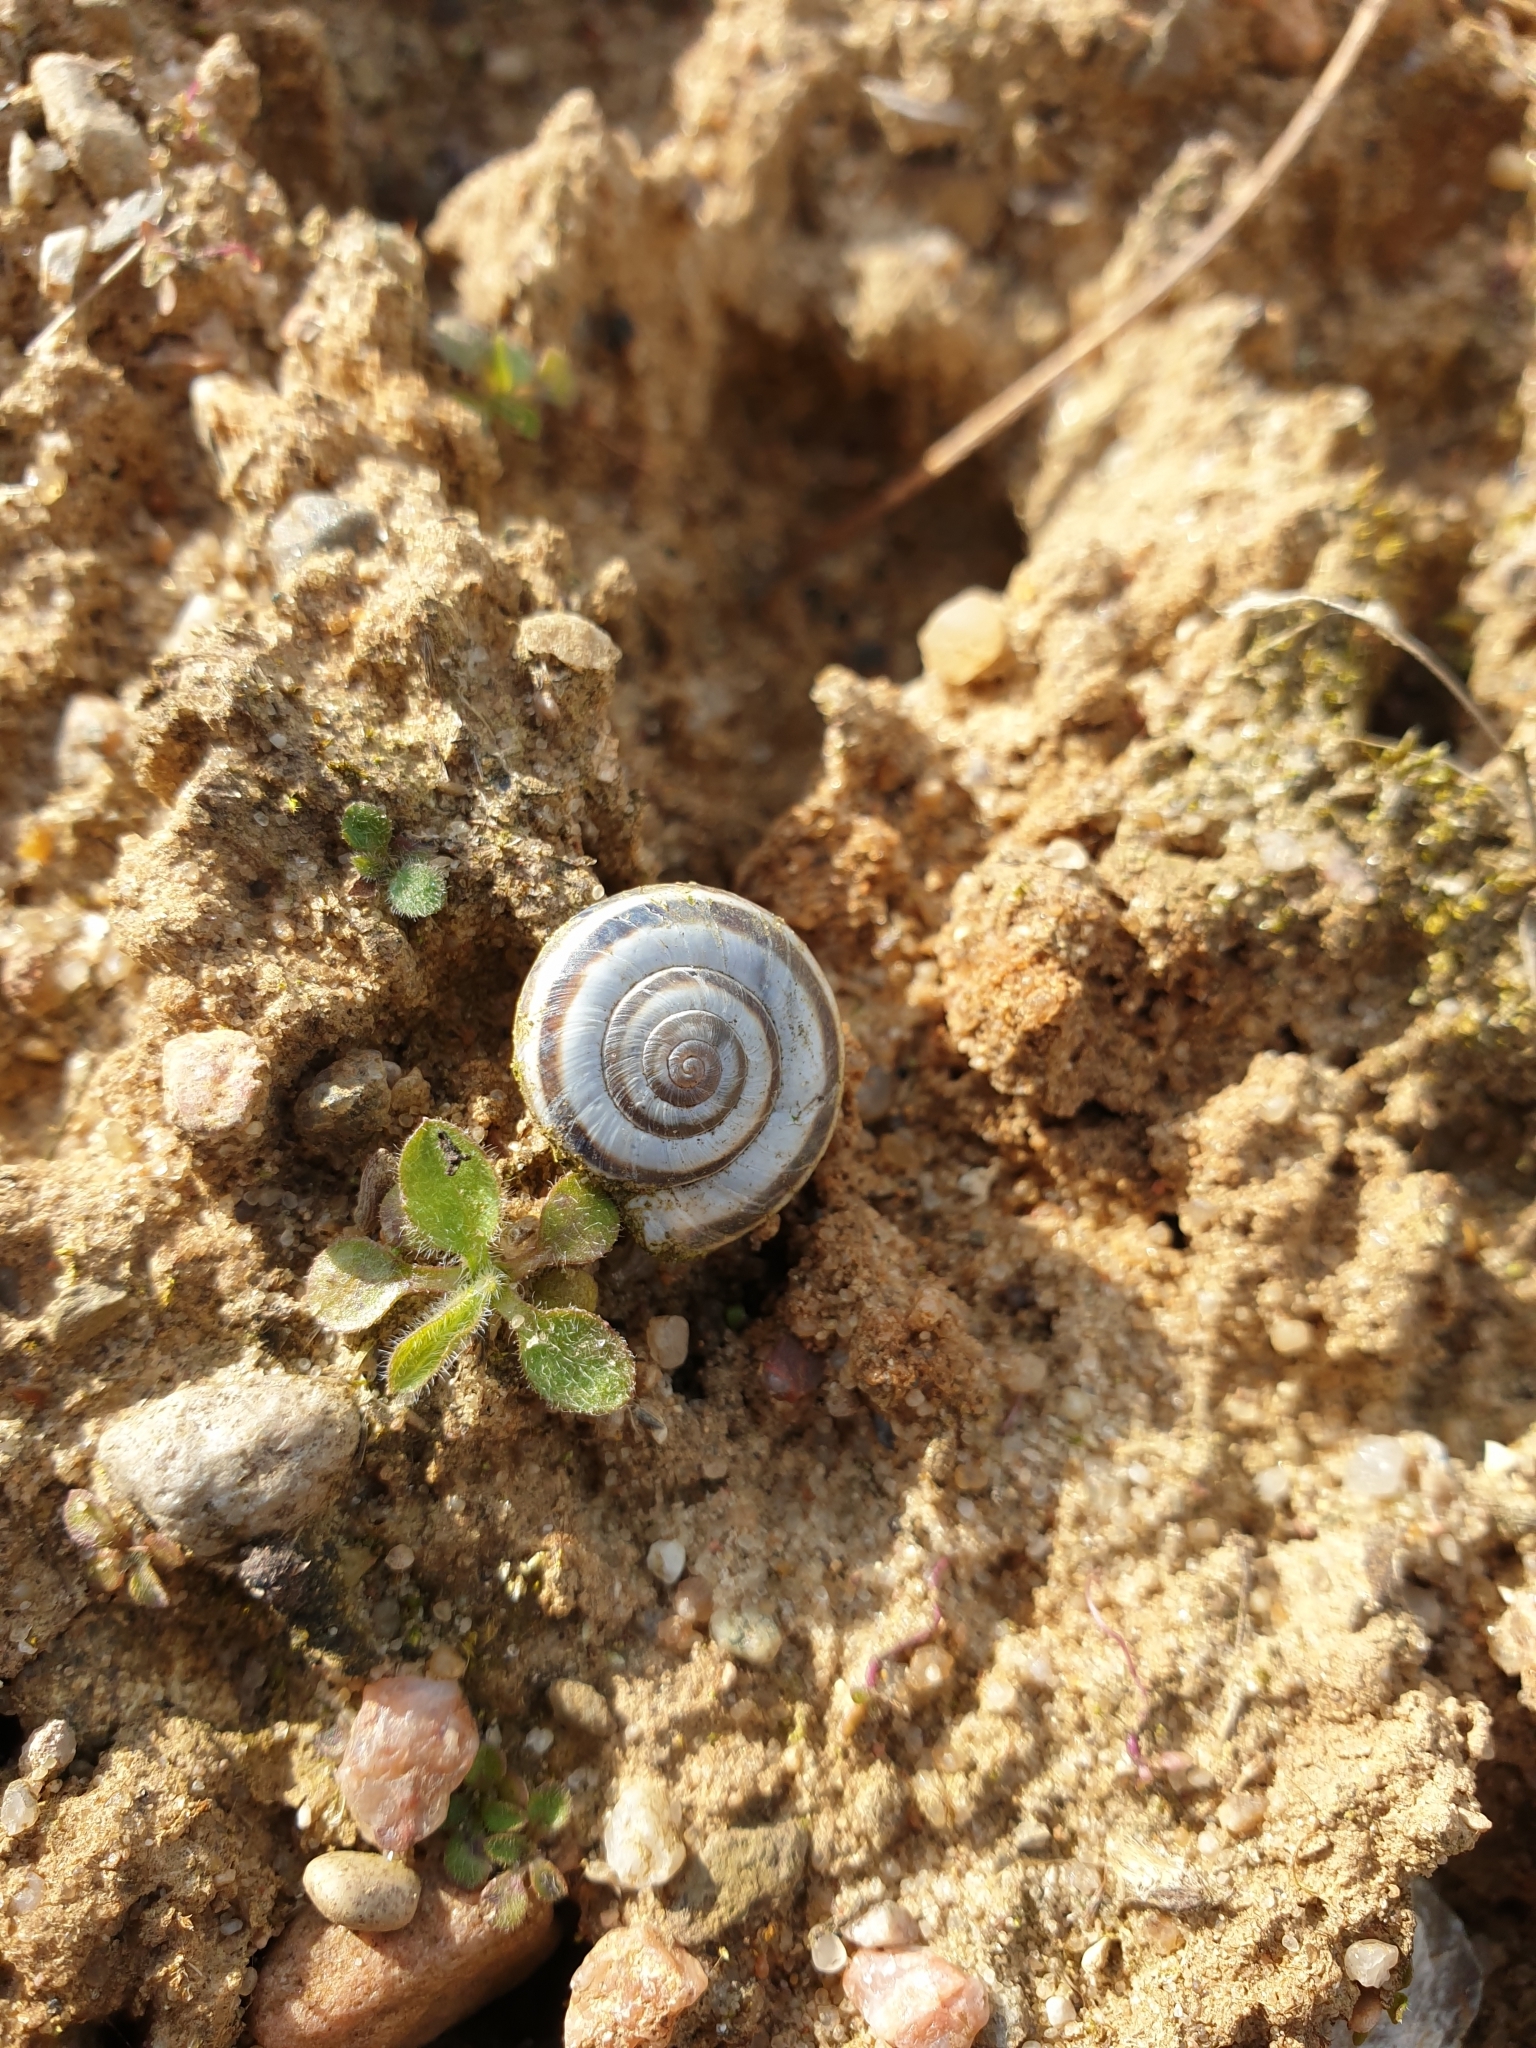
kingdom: Animalia
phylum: Mollusca
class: Gastropoda
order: Stylommatophora
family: Geomitridae
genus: Xerolenta
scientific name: Xerolenta obvia
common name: White heath snail
